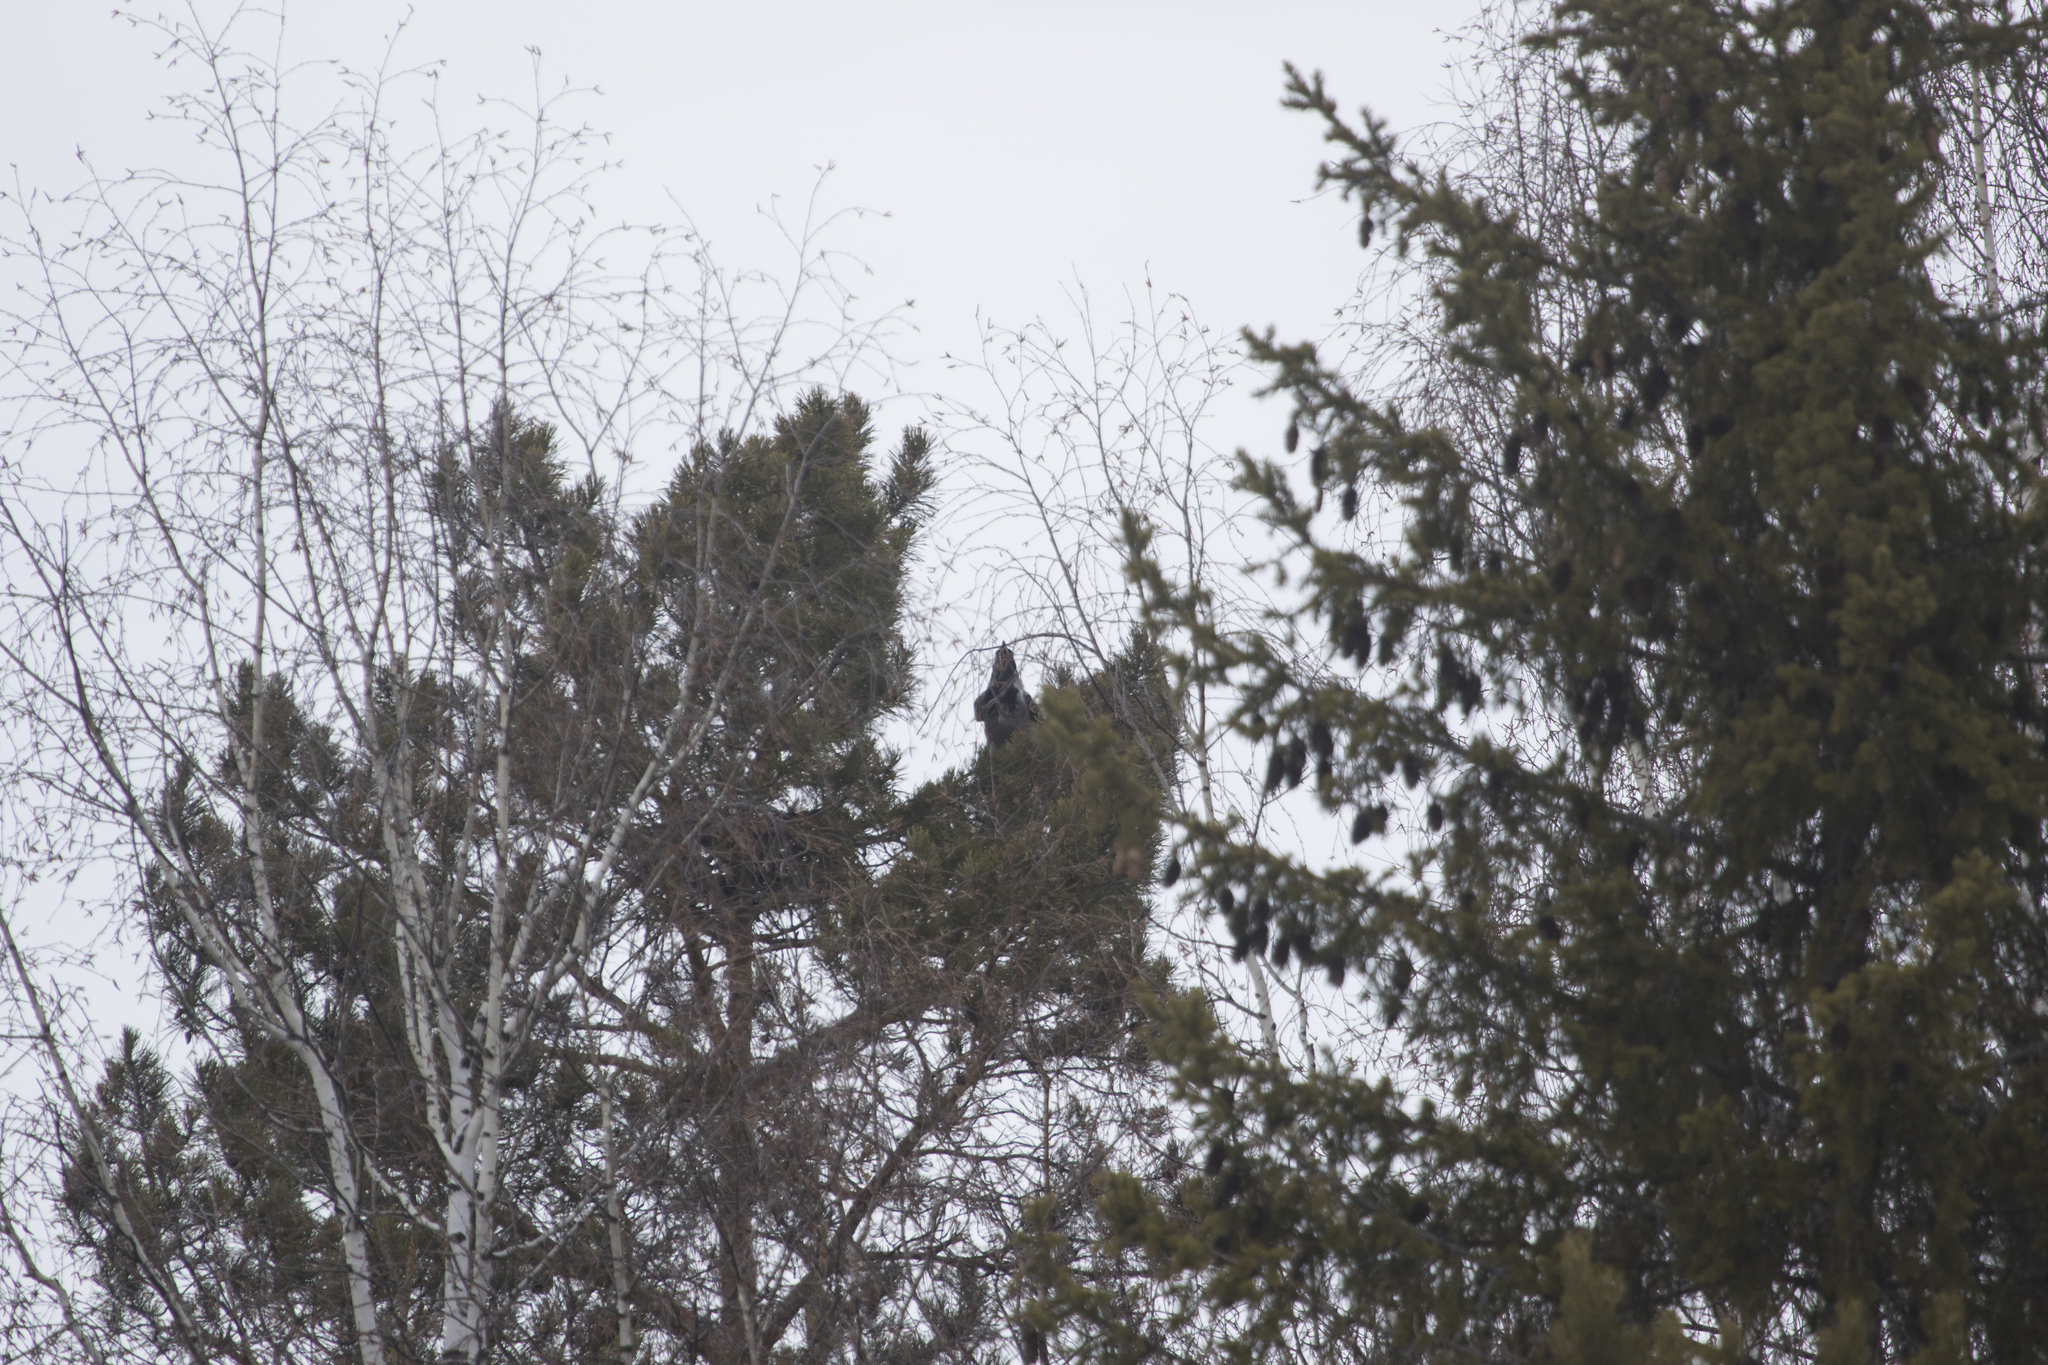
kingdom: Animalia
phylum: Chordata
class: Aves
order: Passeriformes
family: Corvidae
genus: Corvus
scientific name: Corvus cornix
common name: Hooded crow
